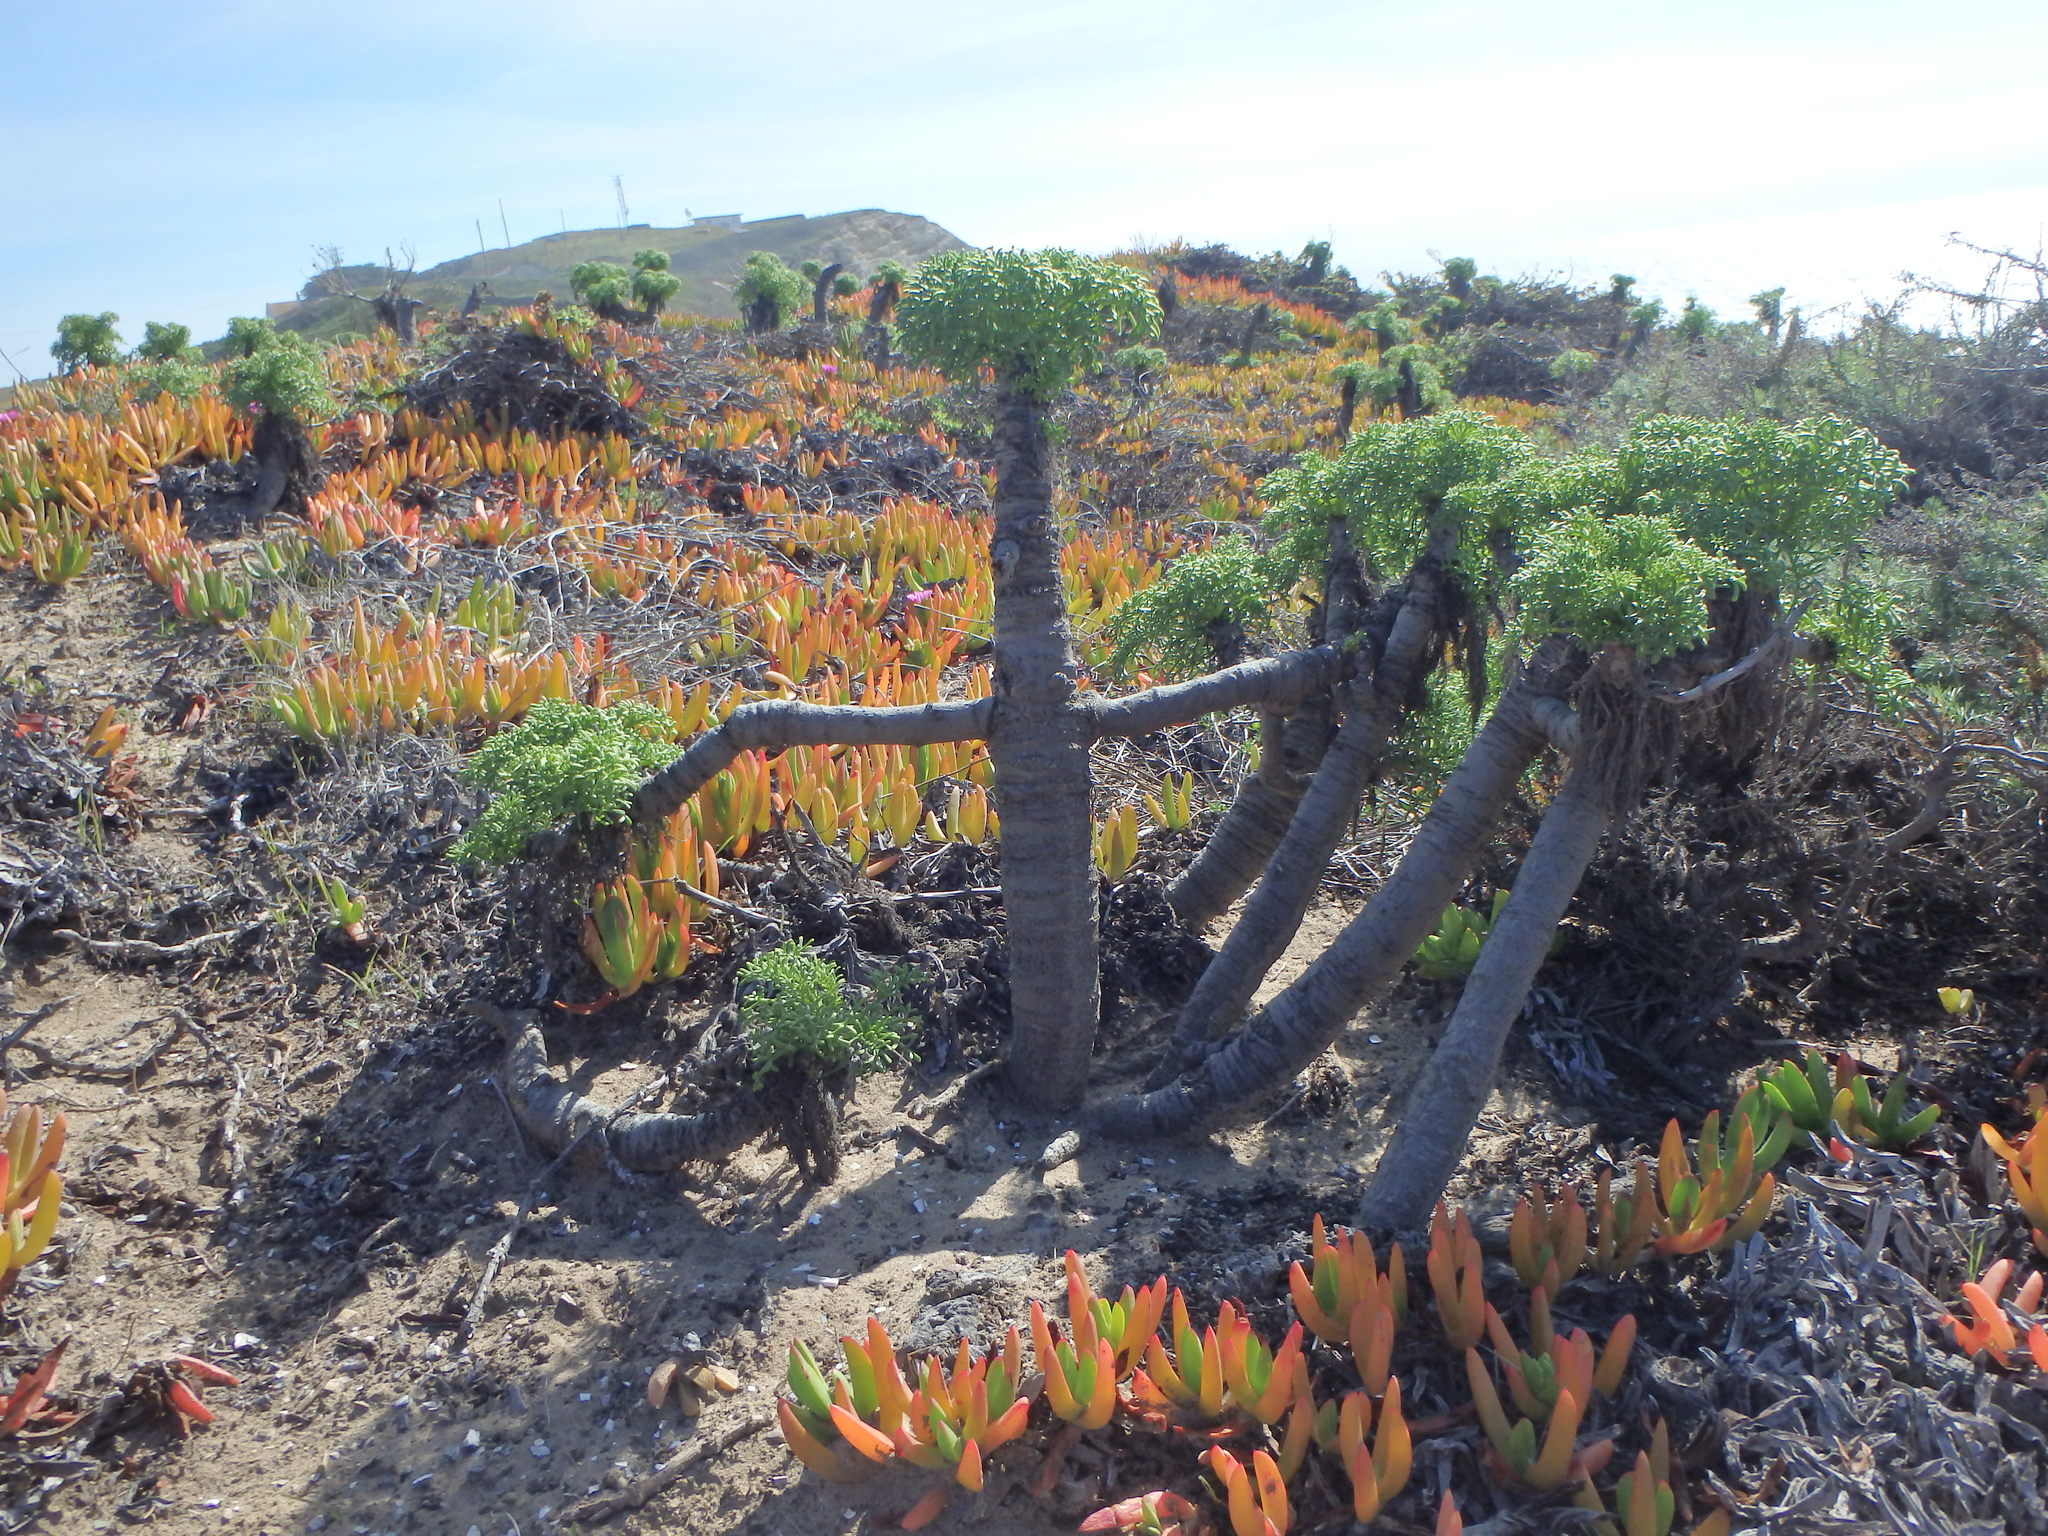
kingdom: Plantae
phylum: Tracheophyta
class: Magnoliopsida
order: Asterales
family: Asteraceae
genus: Coreopsis
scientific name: Coreopsis gigantea
